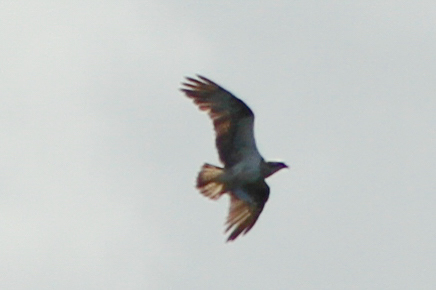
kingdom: Animalia
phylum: Chordata
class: Aves
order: Accipitriformes
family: Pandionidae
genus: Pandion
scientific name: Pandion haliaetus
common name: Osprey
